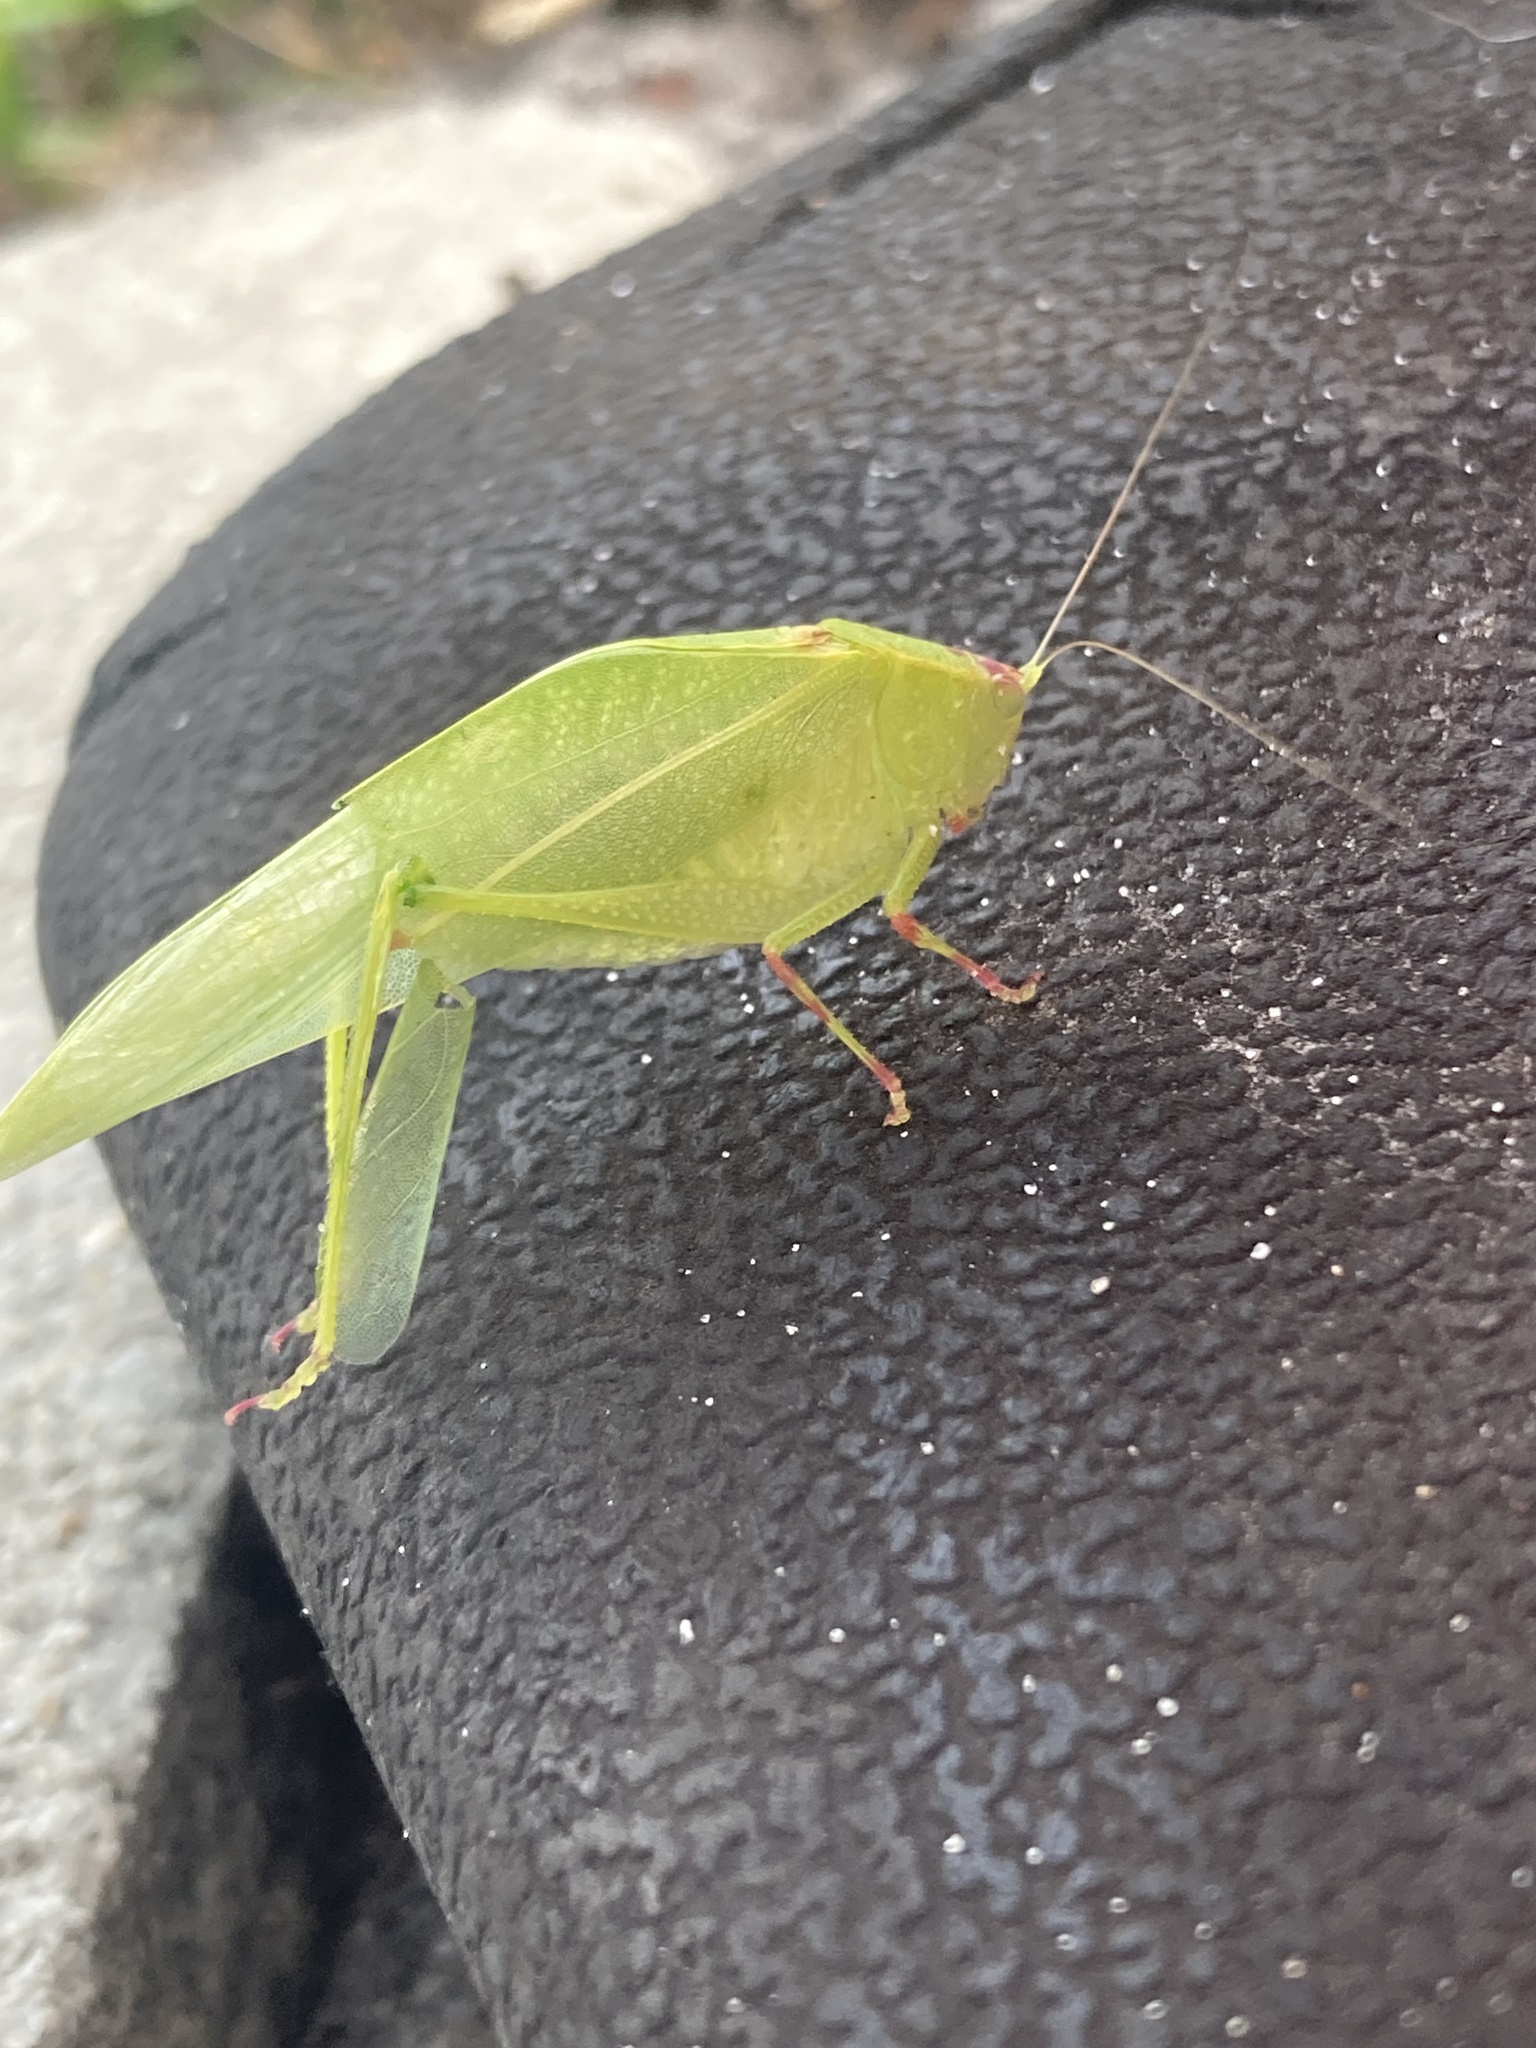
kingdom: Animalia
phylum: Arthropoda
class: Insecta
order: Orthoptera
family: Tettigoniidae
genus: Turpilia
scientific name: Turpilia rostrata
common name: Narrow-beaked katydid
